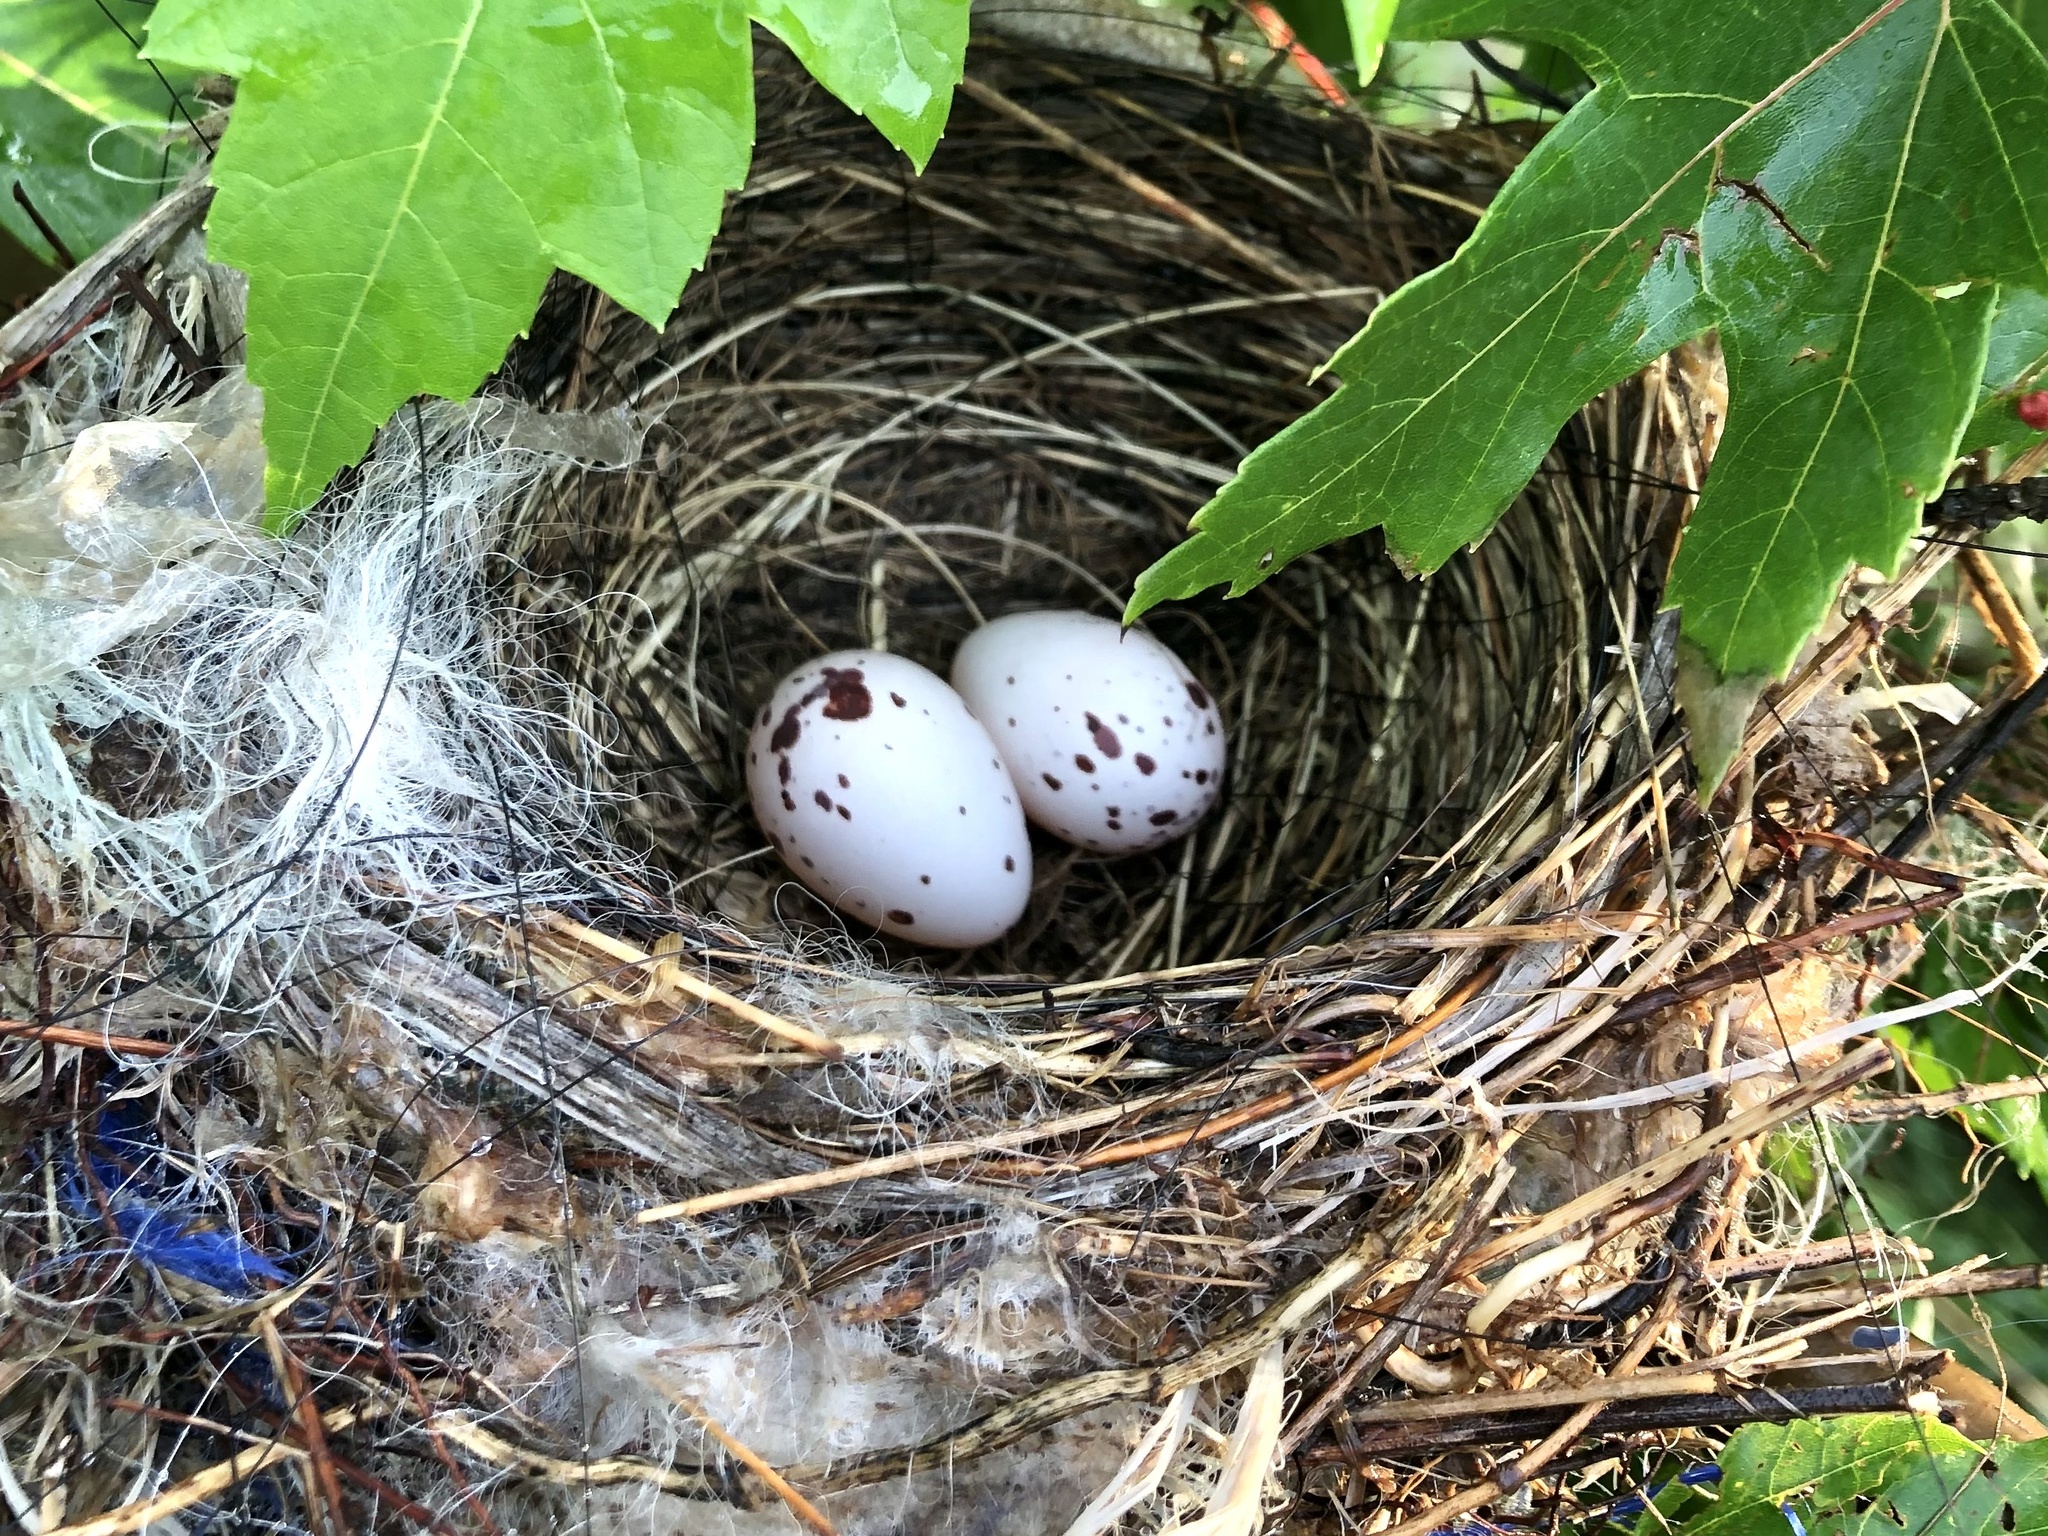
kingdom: Animalia
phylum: Chordata
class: Aves
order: Passeriformes
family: Tyrannidae
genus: Tyrannus
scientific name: Tyrannus tyrannus
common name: Eastern kingbird
